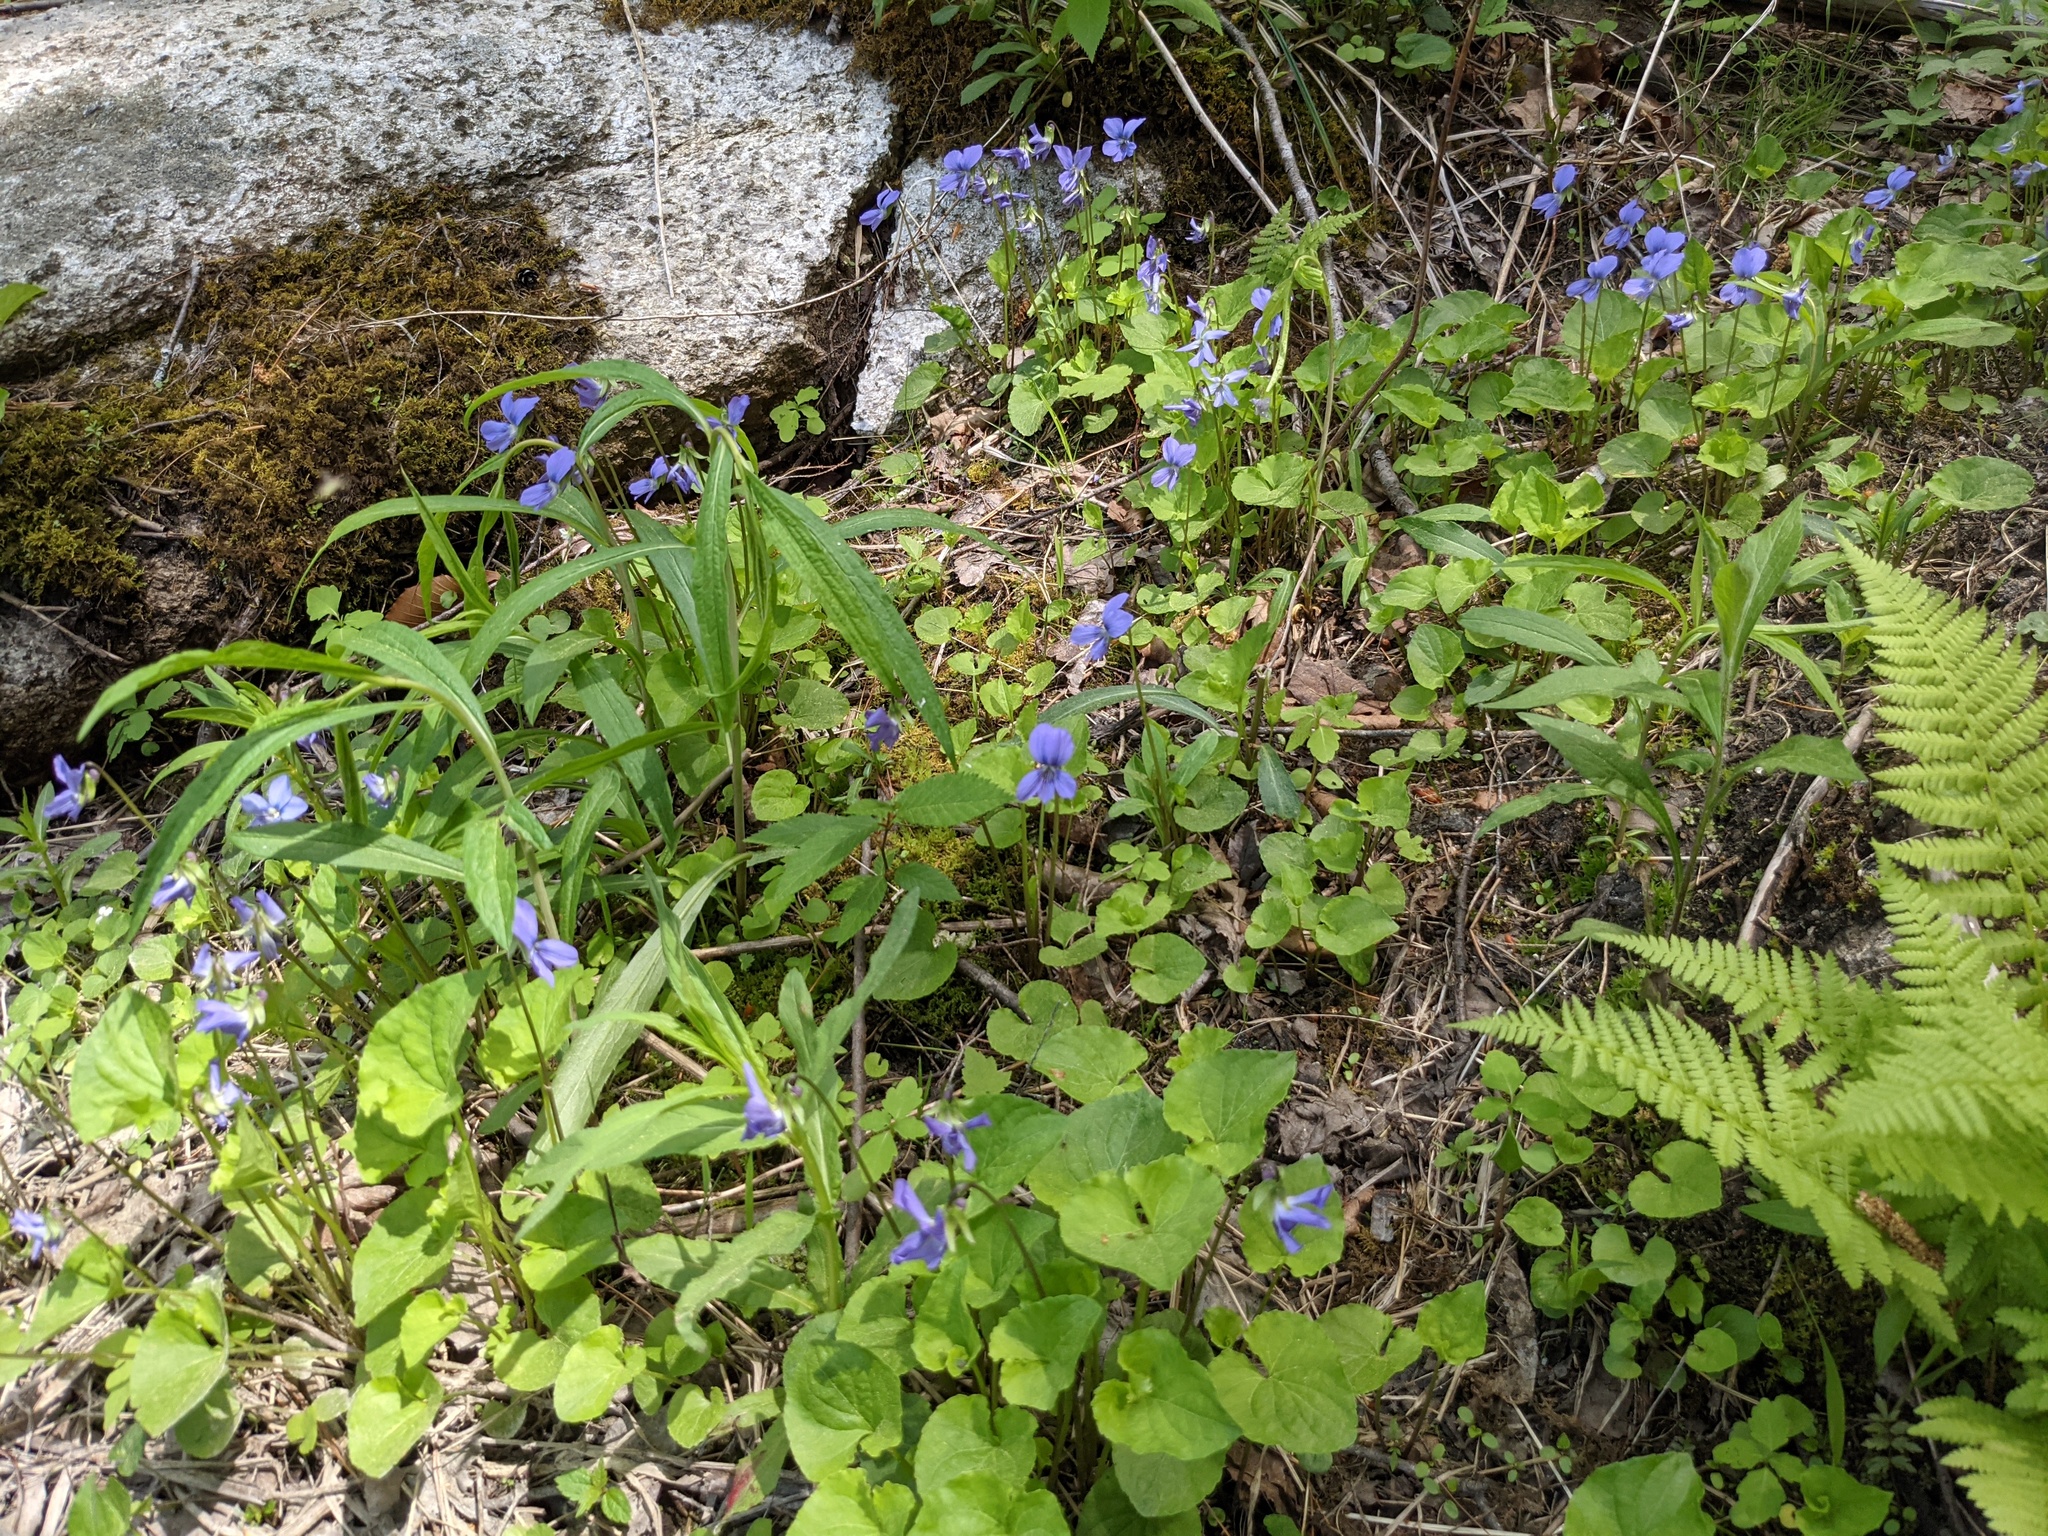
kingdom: Plantae
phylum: Tracheophyta
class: Magnoliopsida
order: Malpighiales
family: Violaceae
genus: Viola
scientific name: Viola cucullata
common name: Marsh blue violet
